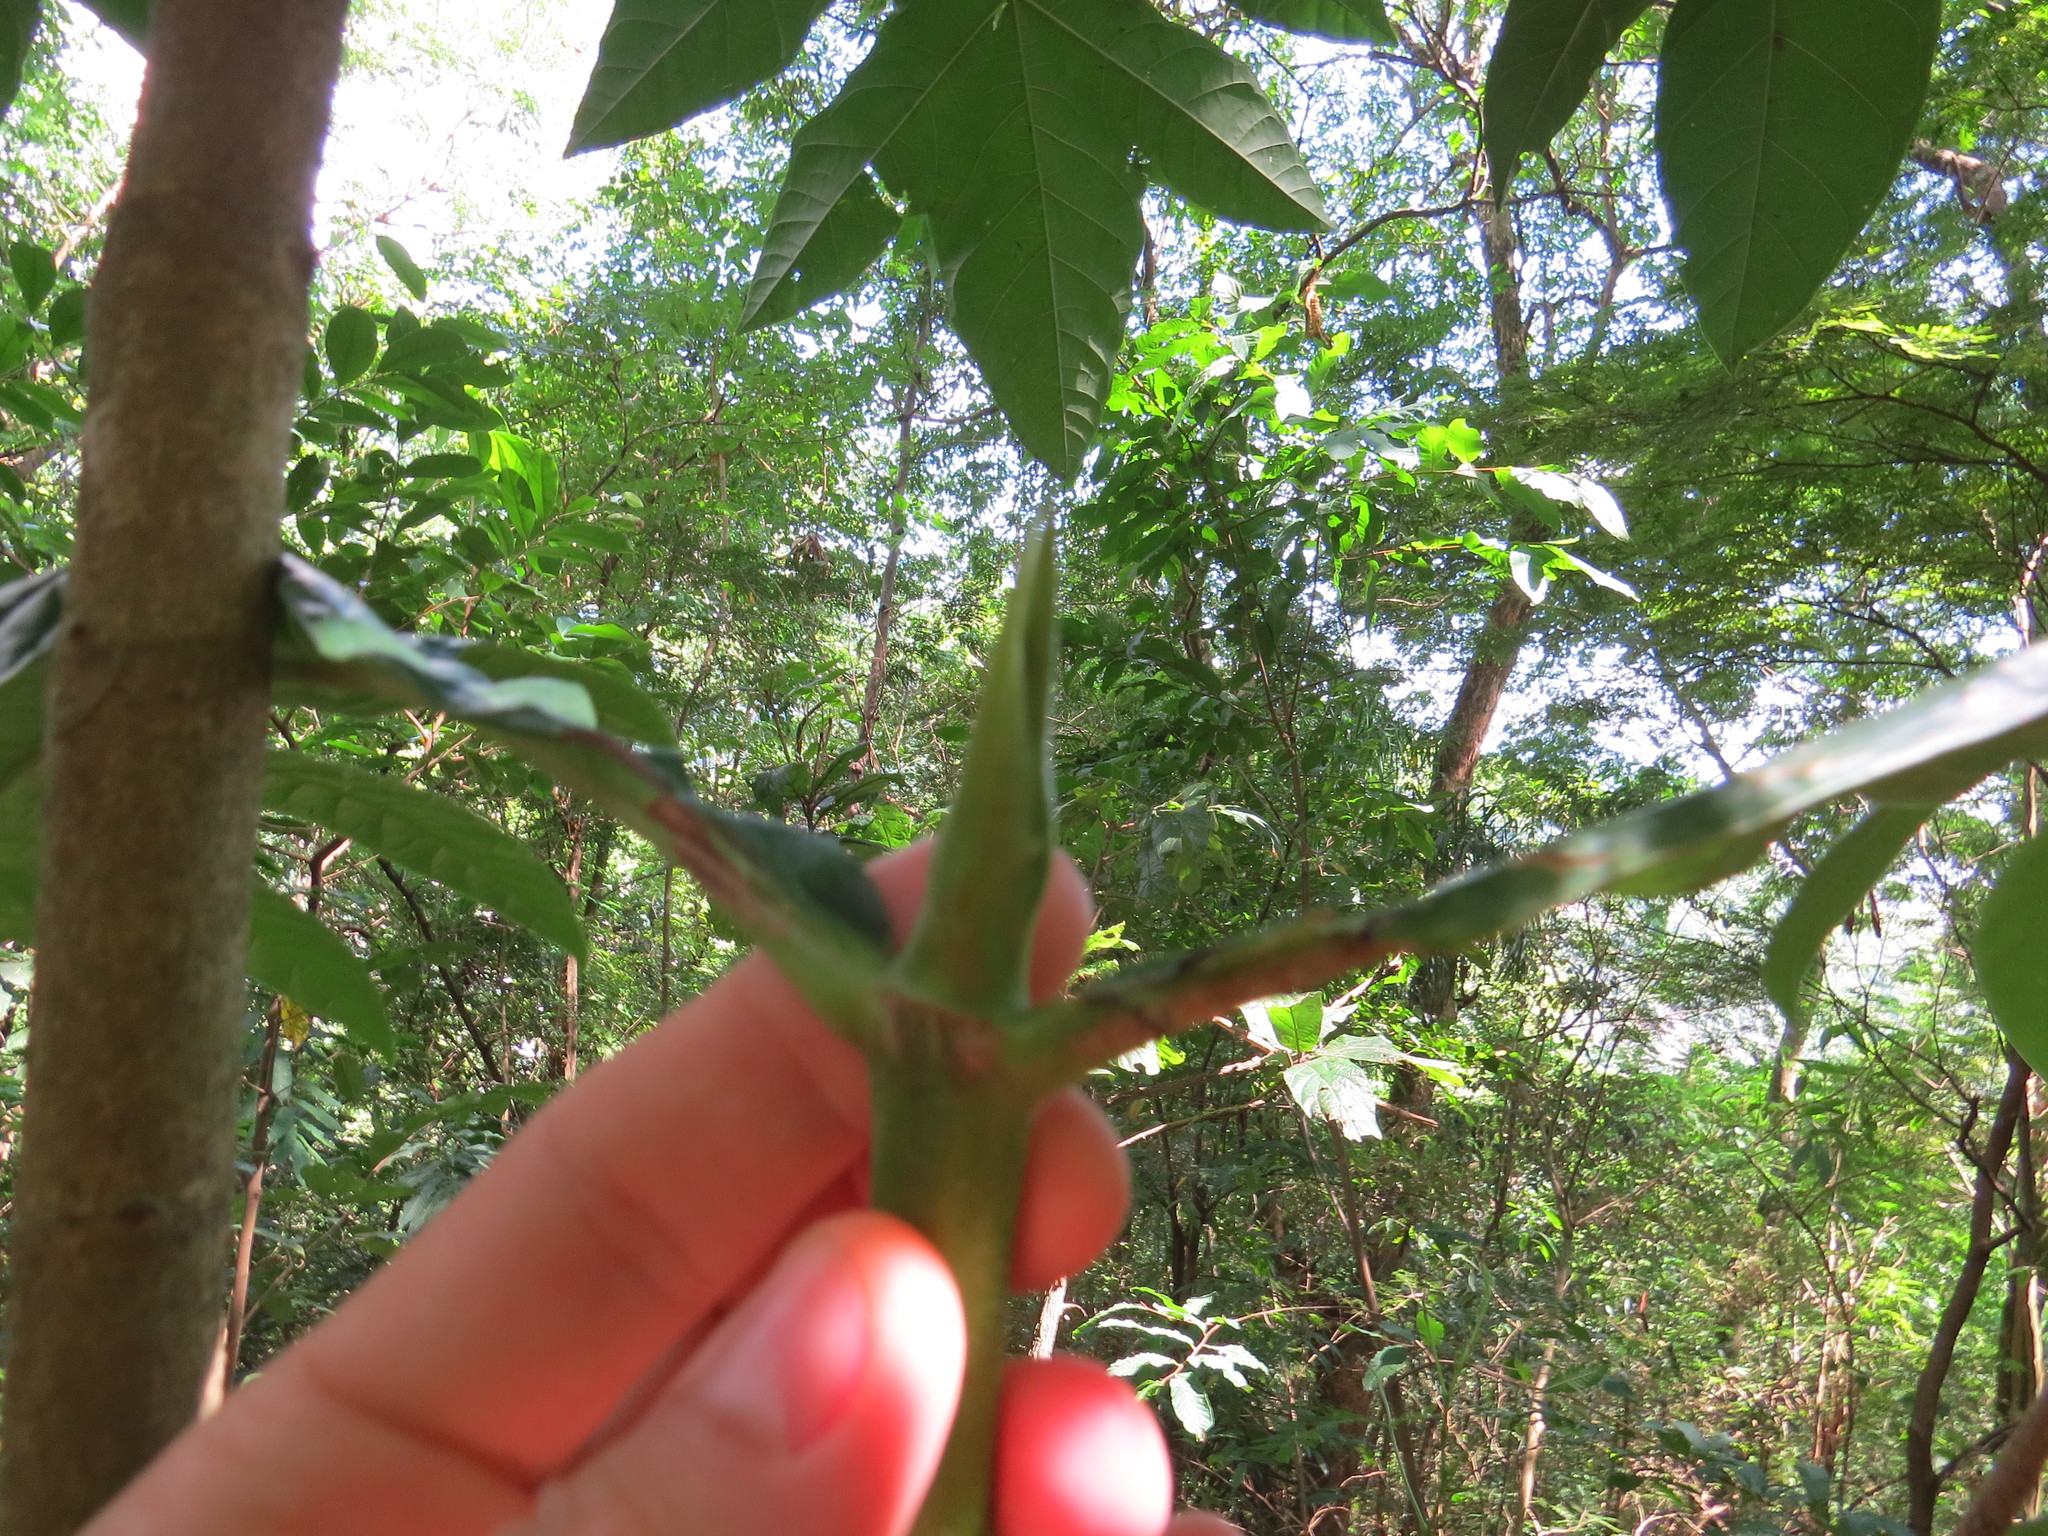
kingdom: Plantae
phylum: Tracheophyta
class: Magnoliopsida
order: Gentianales
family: Rubiaceae
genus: Genipa
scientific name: Genipa infundibuliformis
